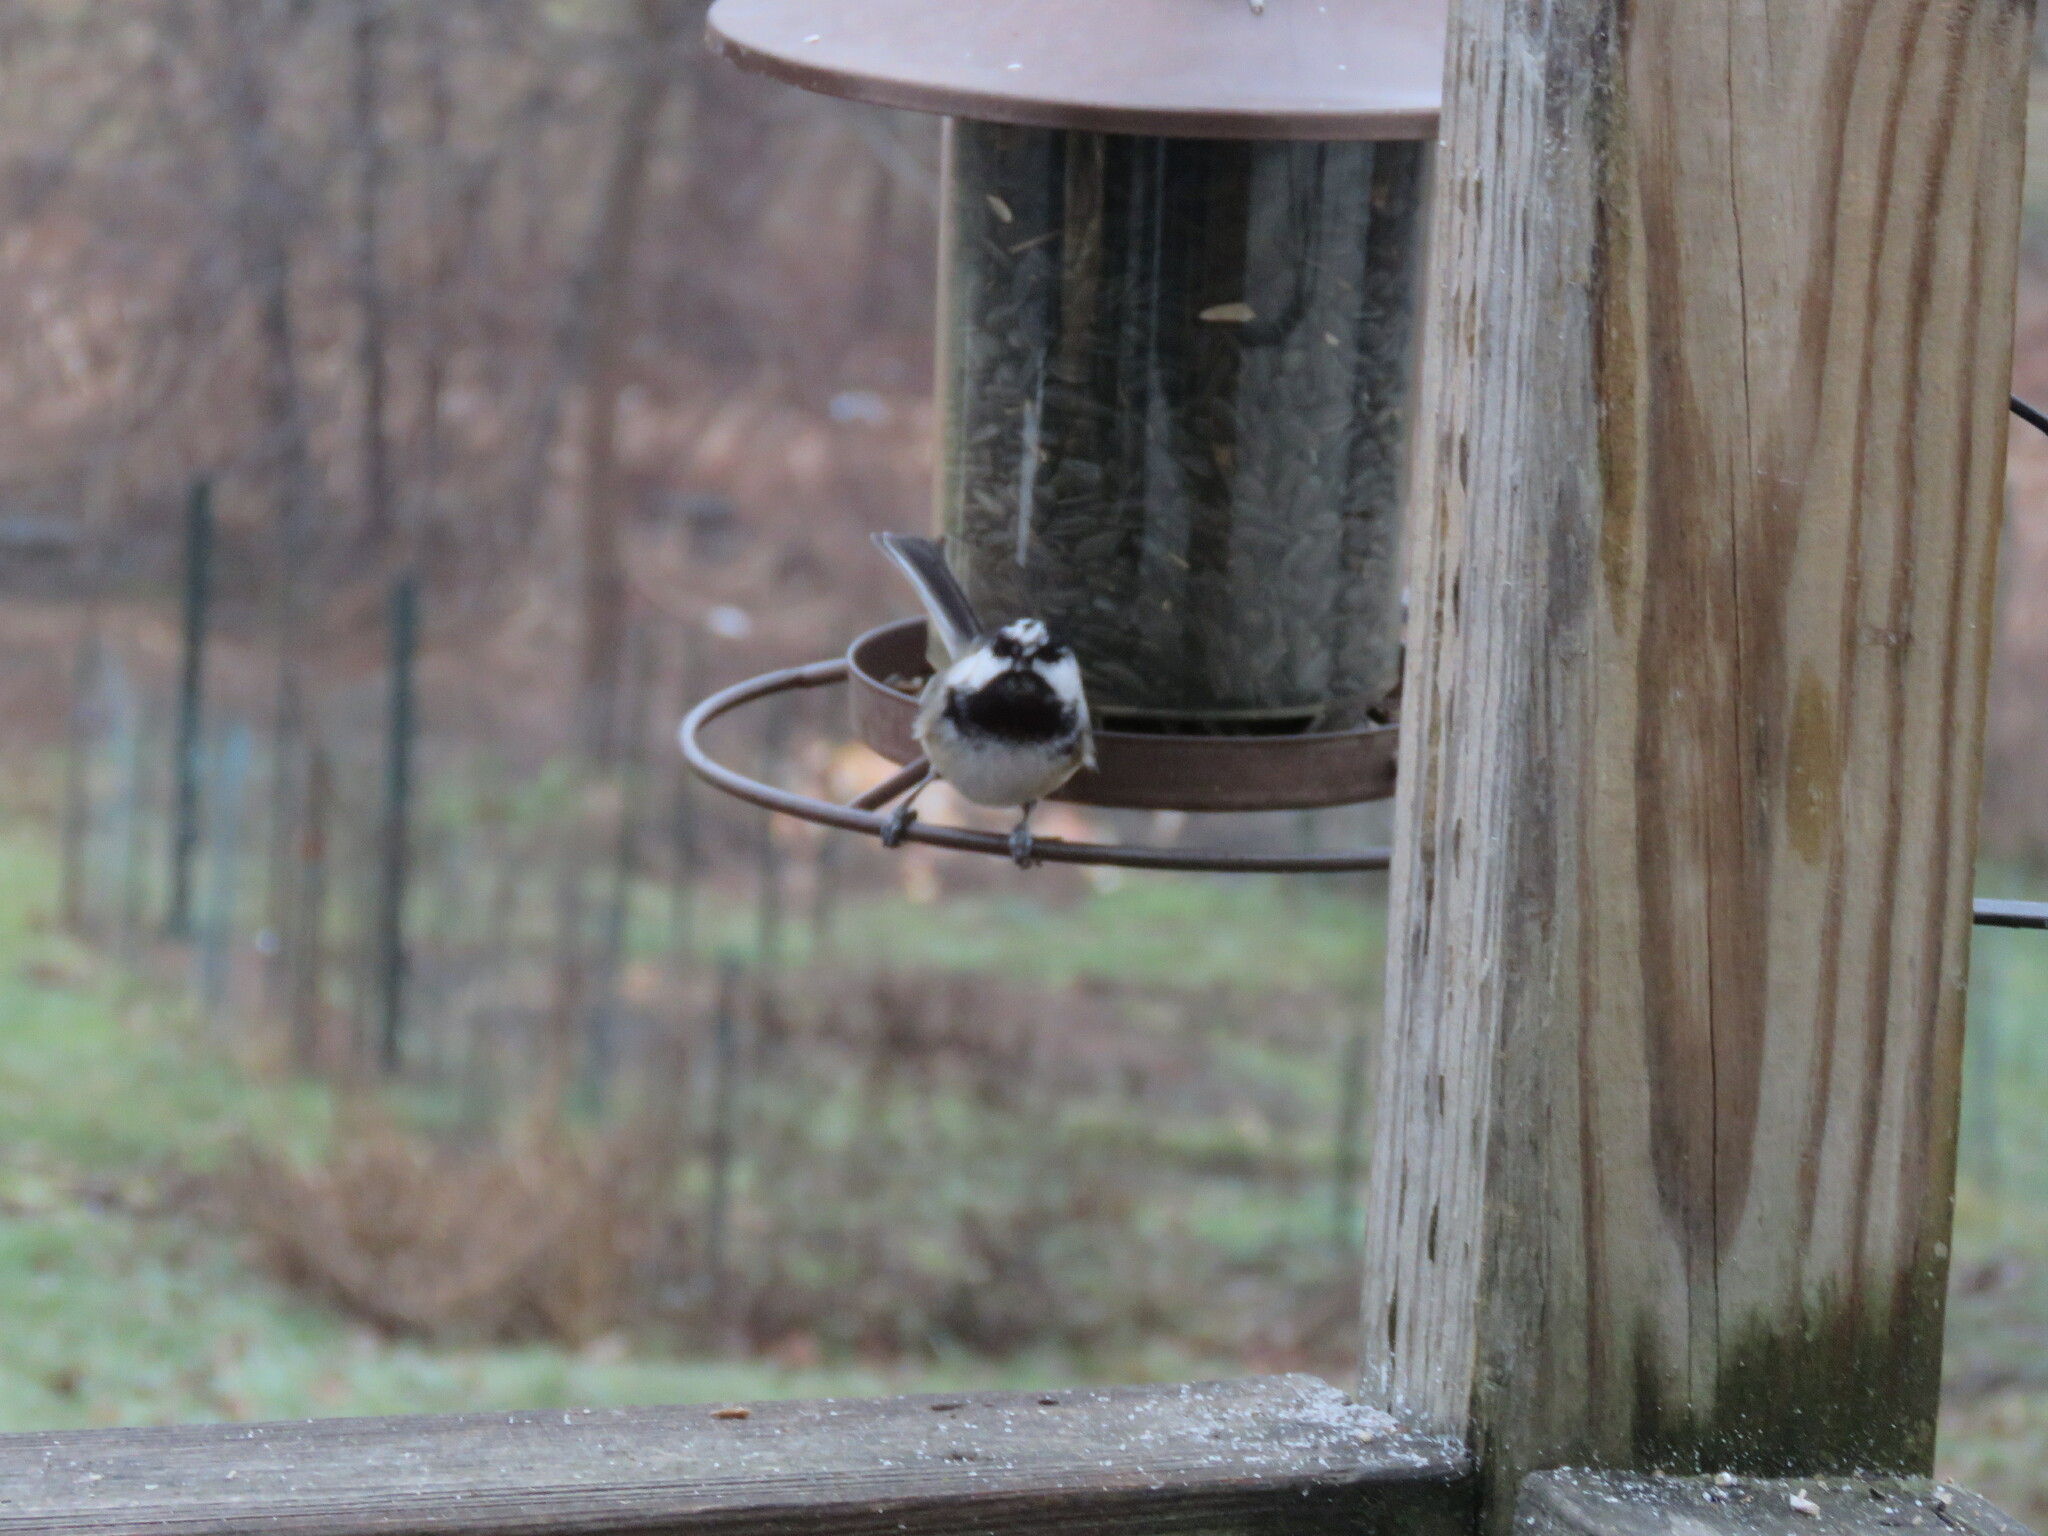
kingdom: Animalia
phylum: Chordata
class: Aves
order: Passeriformes
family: Paridae
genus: Poecile
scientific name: Poecile atricapillus
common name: Black-capped chickadee
